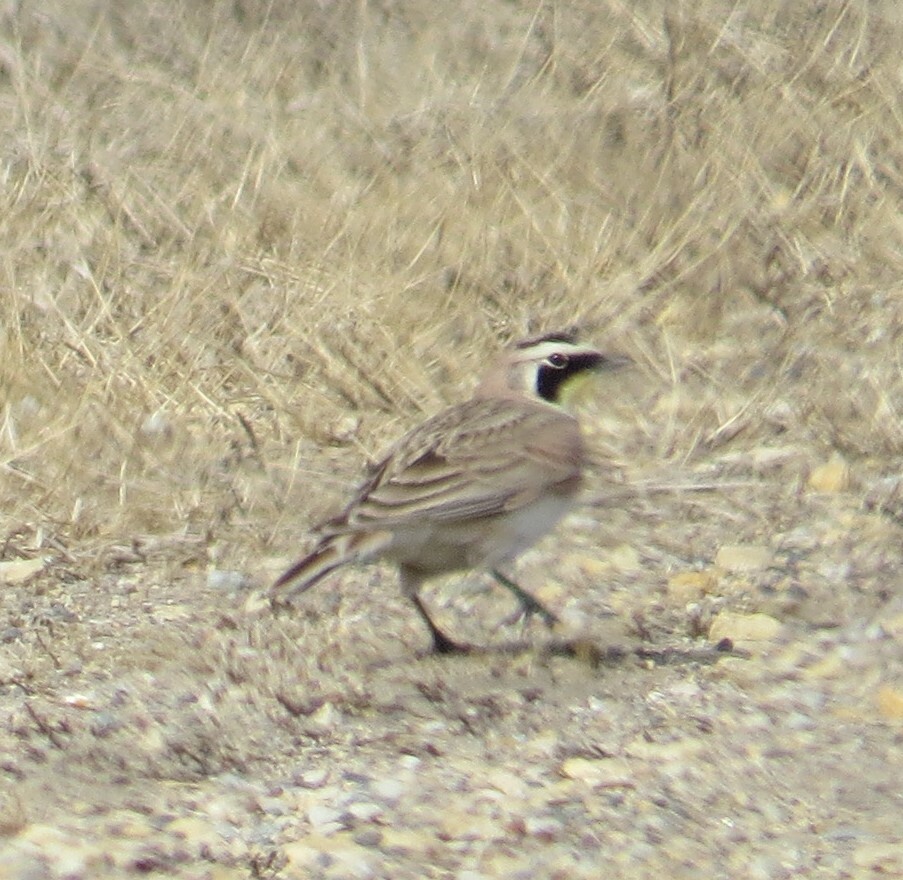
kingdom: Animalia
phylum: Chordata
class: Aves
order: Passeriformes
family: Alaudidae
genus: Eremophila
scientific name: Eremophila alpestris
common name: Horned lark
